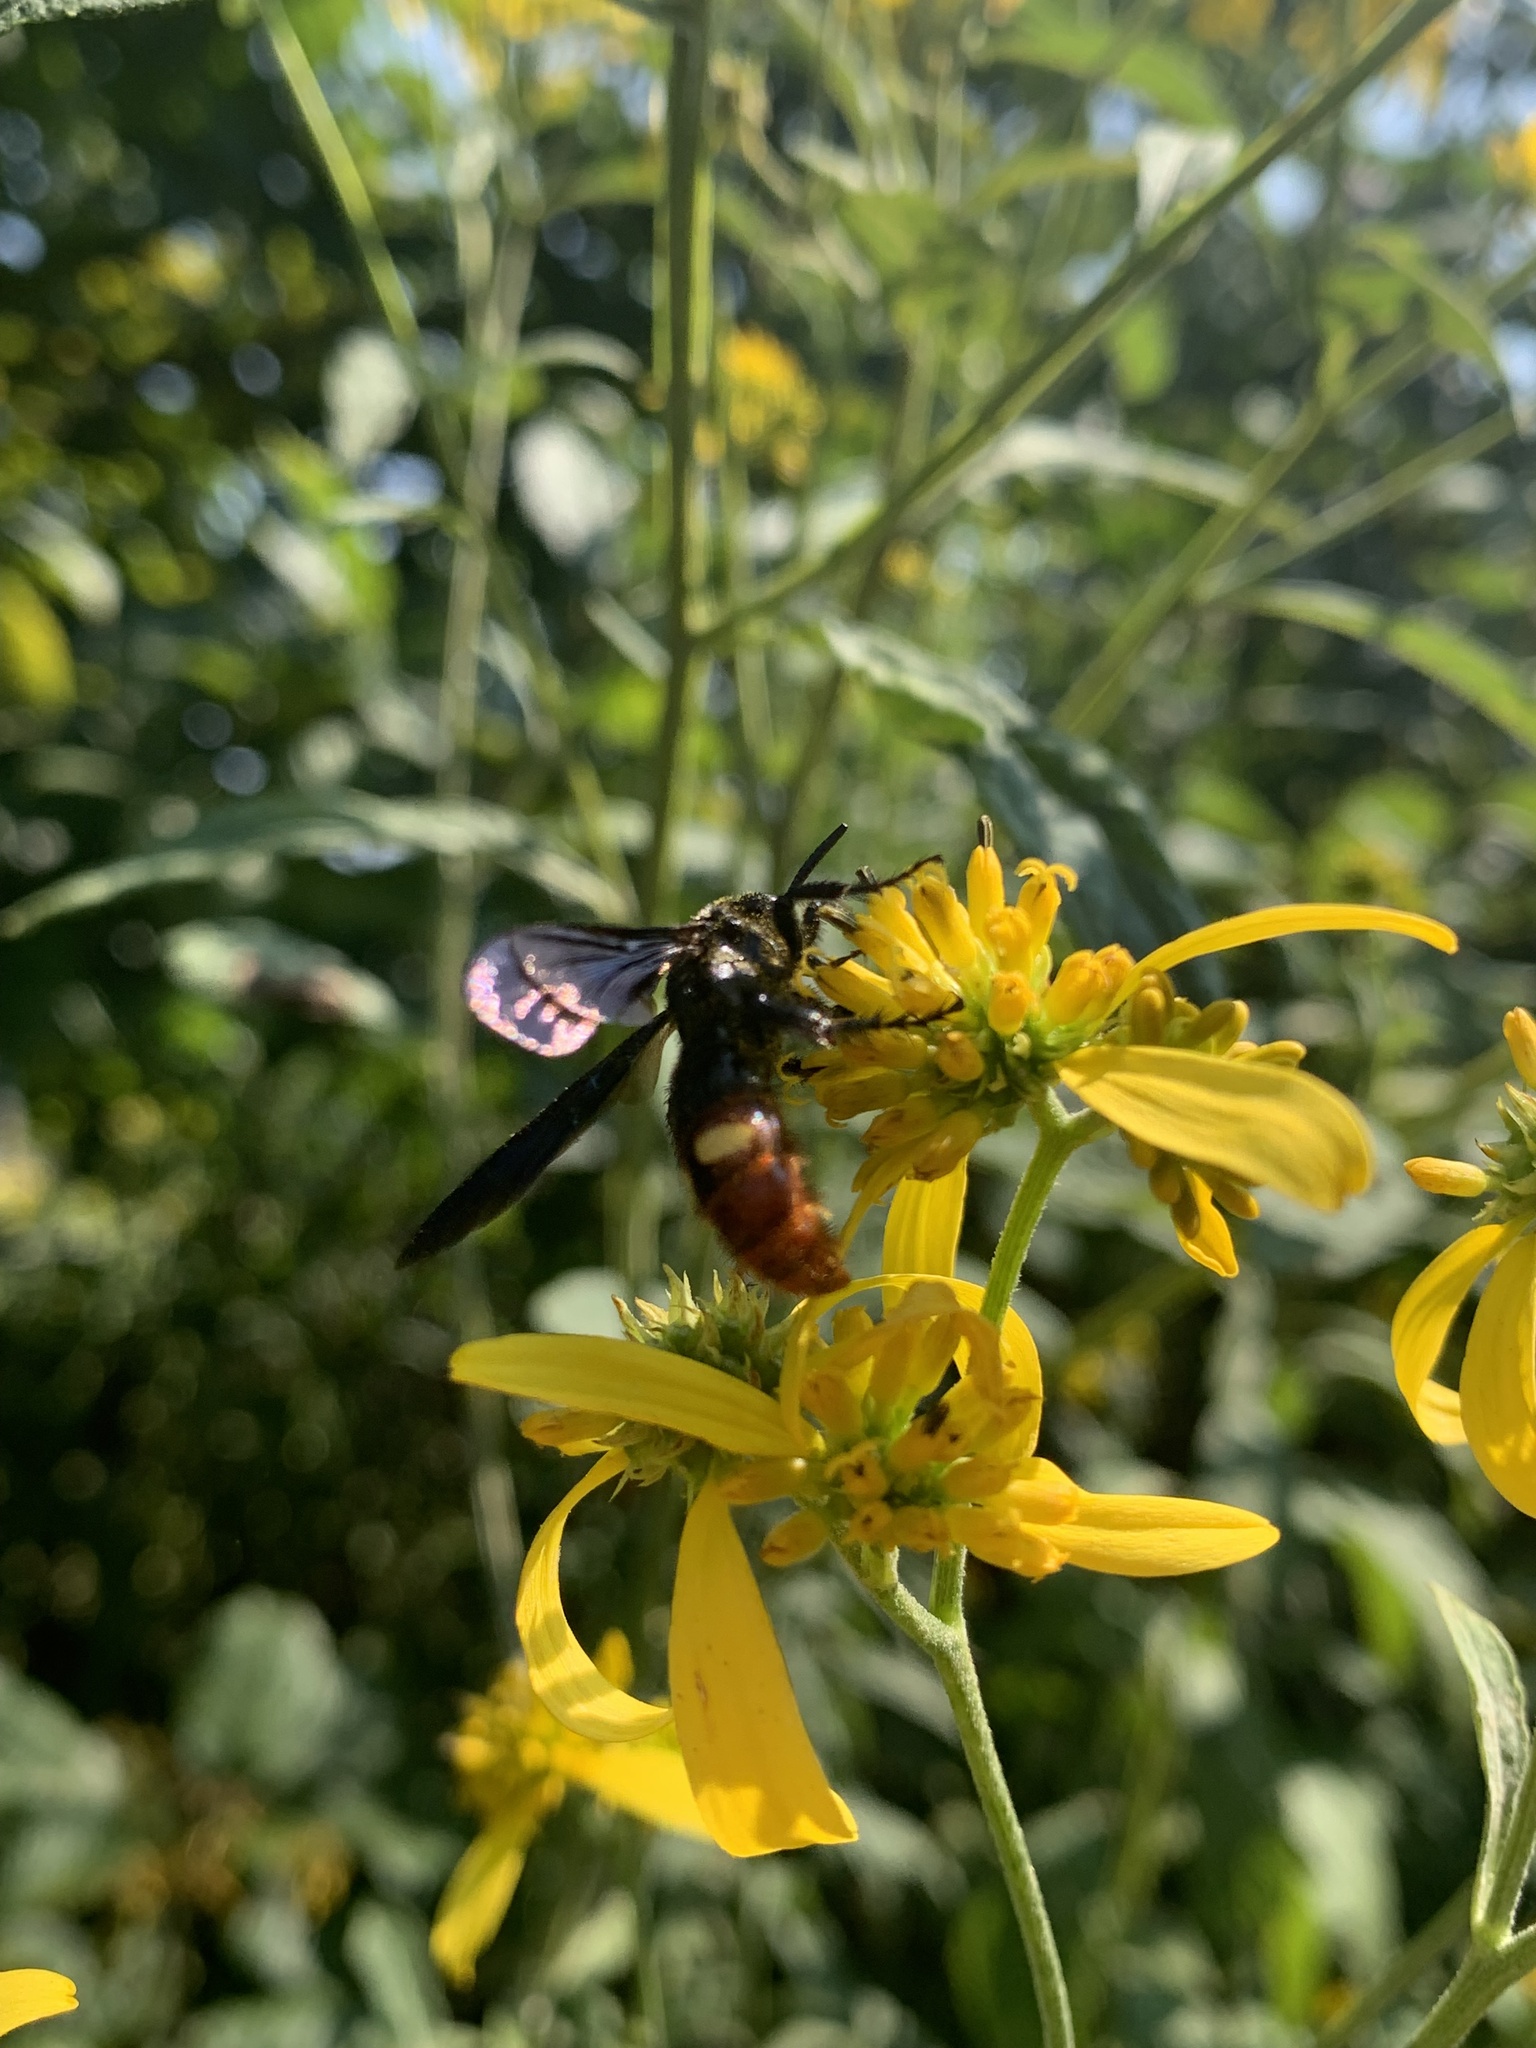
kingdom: Animalia
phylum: Arthropoda
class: Insecta
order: Hymenoptera
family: Scoliidae
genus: Scolia
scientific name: Scolia dubia
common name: Blue-winged scoliid wasp
